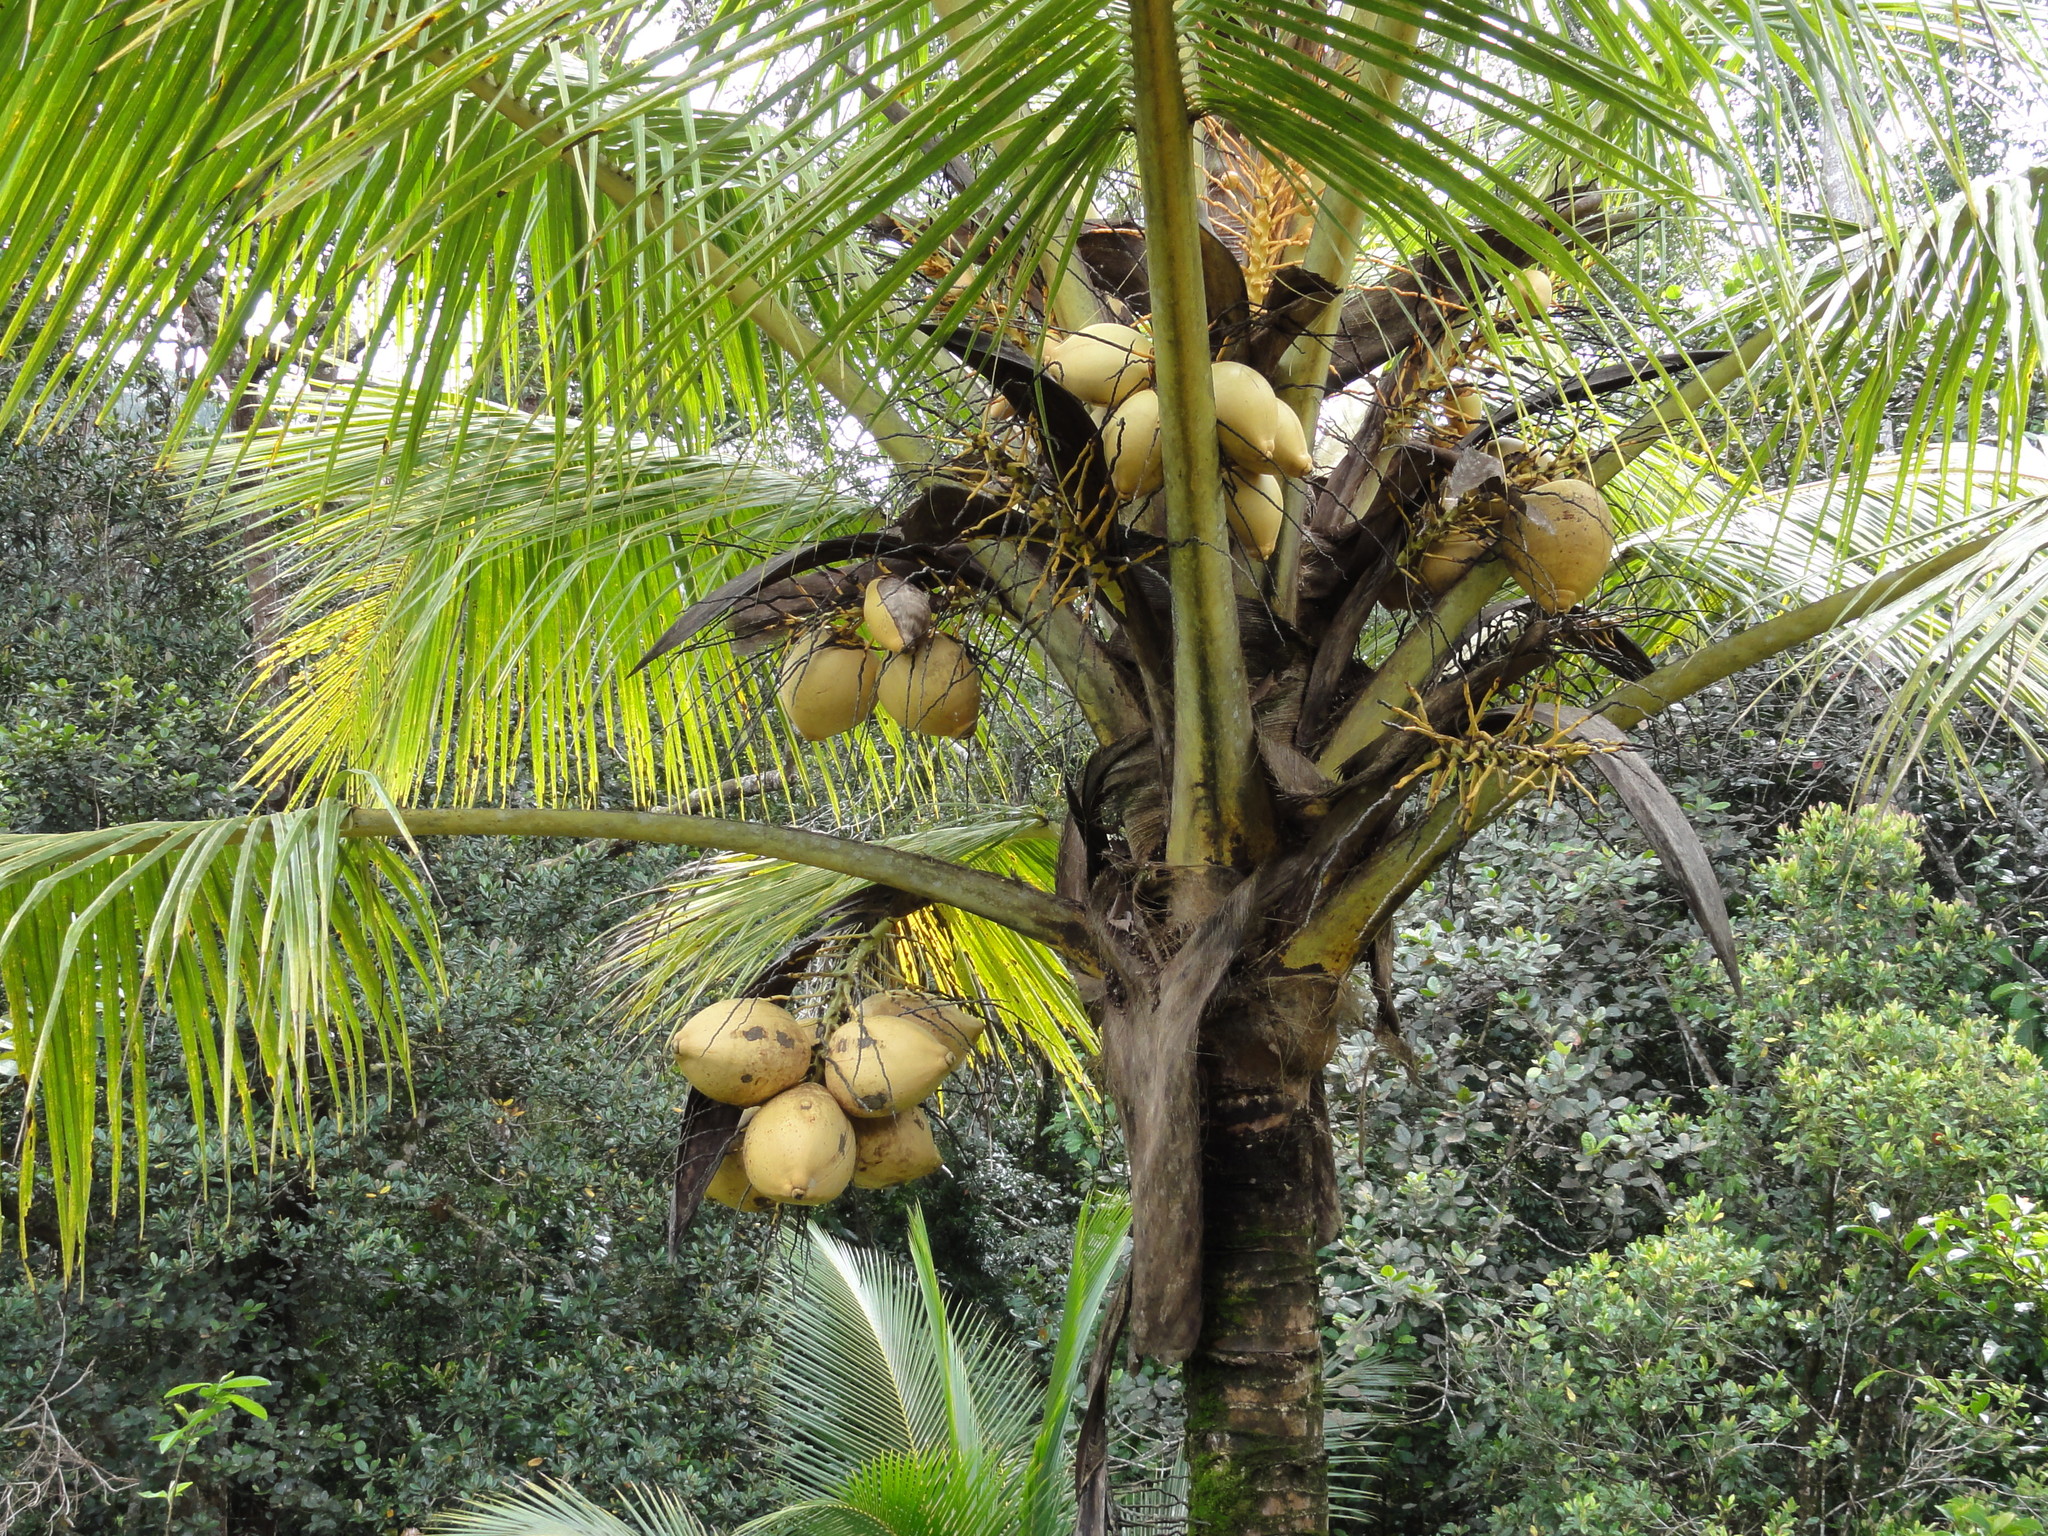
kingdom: Plantae
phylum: Tracheophyta
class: Liliopsida
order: Arecales
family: Arecaceae
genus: Cocos
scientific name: Cocos nucifera
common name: Coconut palm
